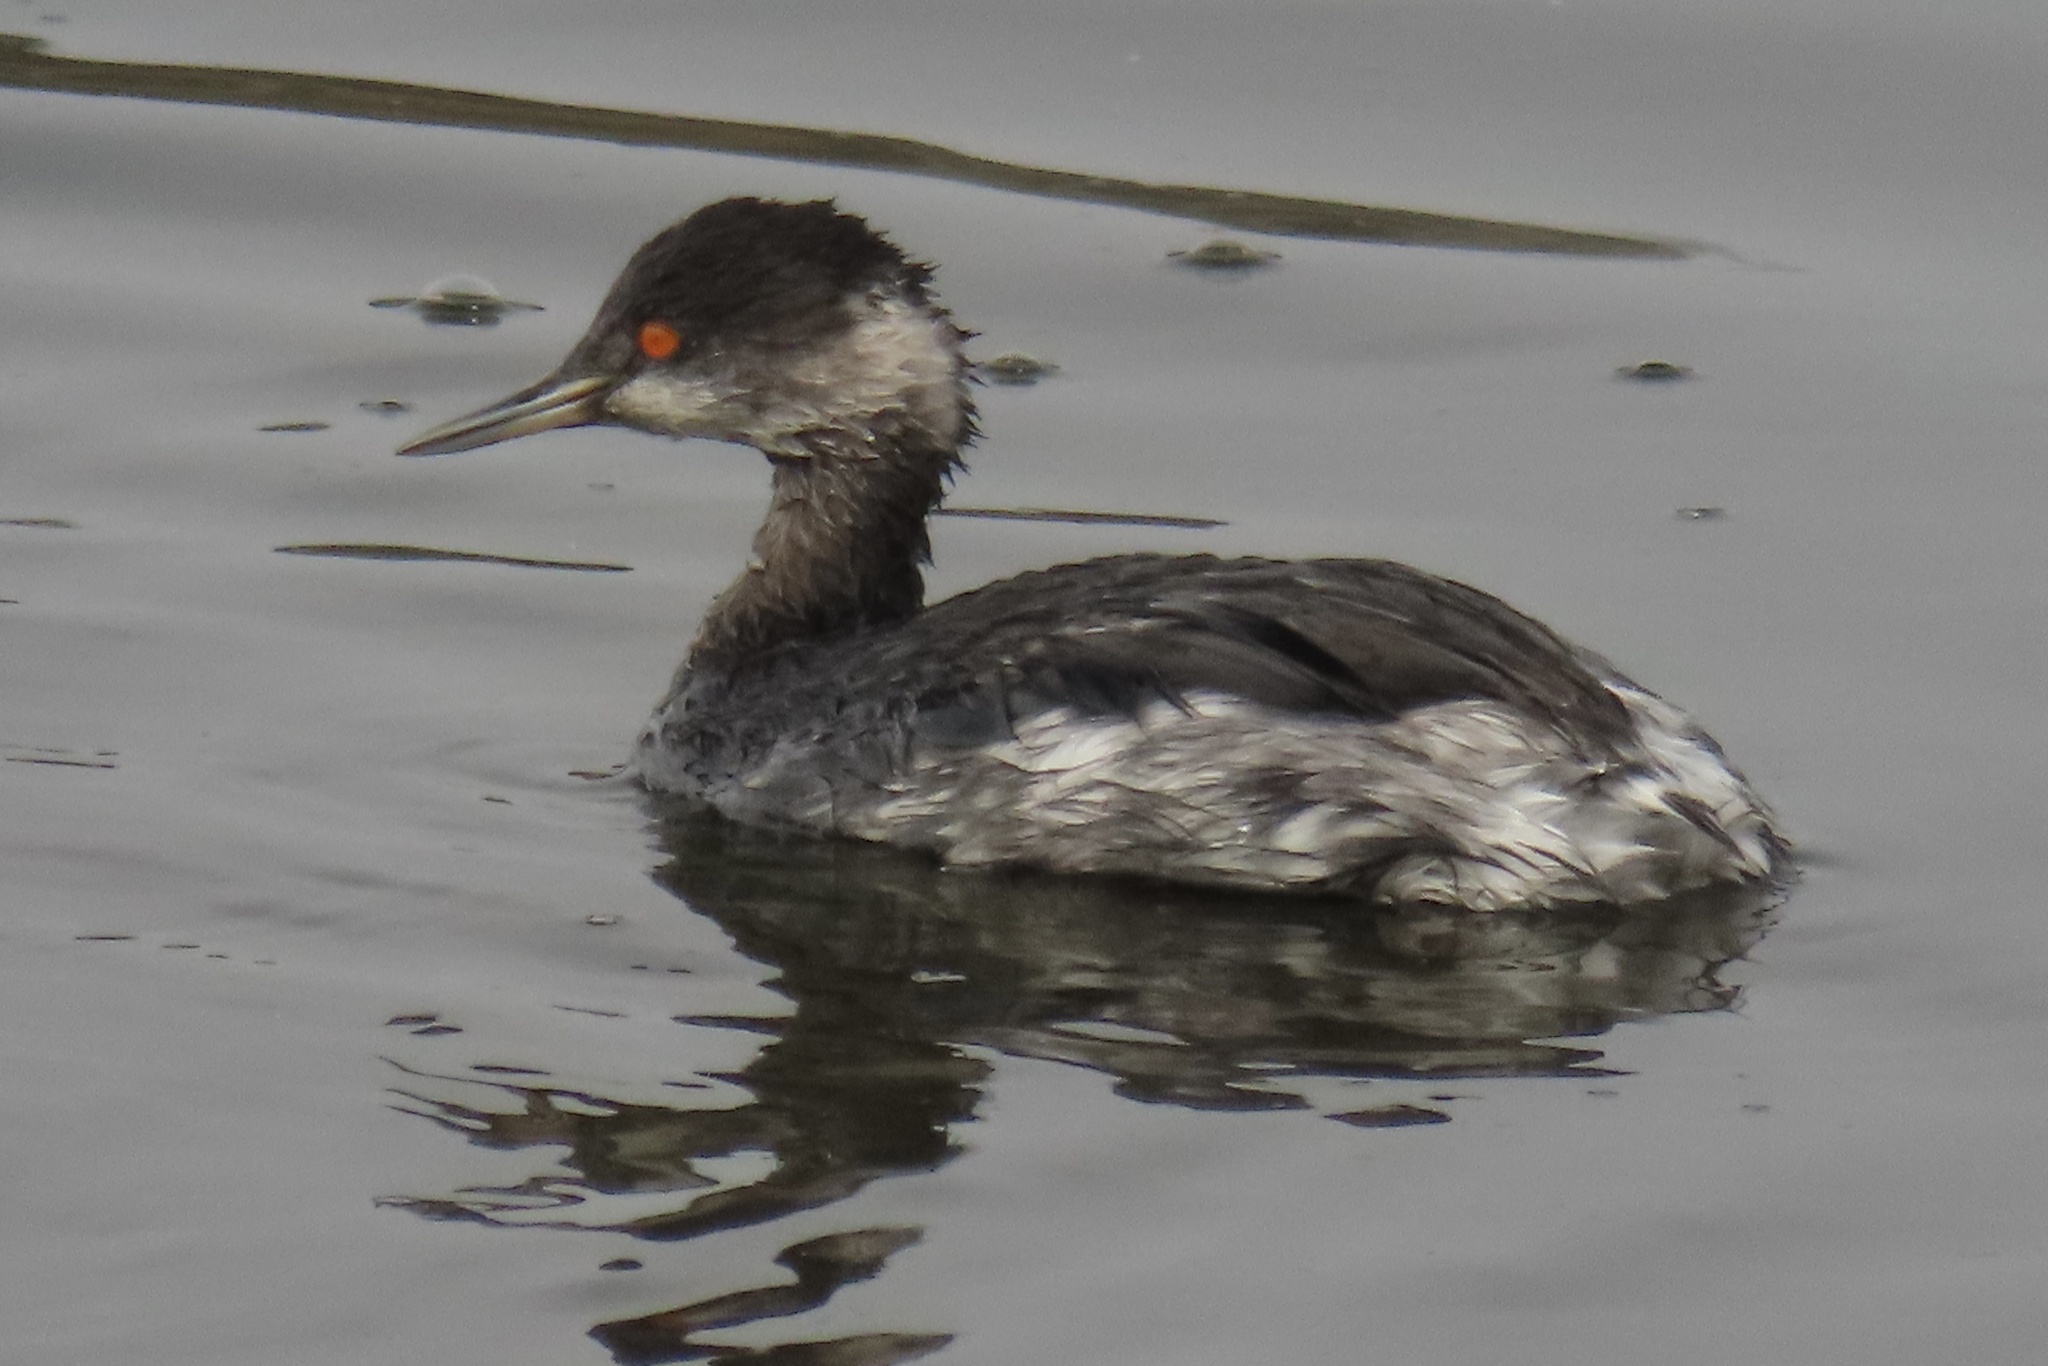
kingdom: Animalia
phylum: Chordata
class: Aves
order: Podicipediformes
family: Podicipedidae
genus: Podiceps
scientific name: Podiceps nigricollis
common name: Black-necked grebe
